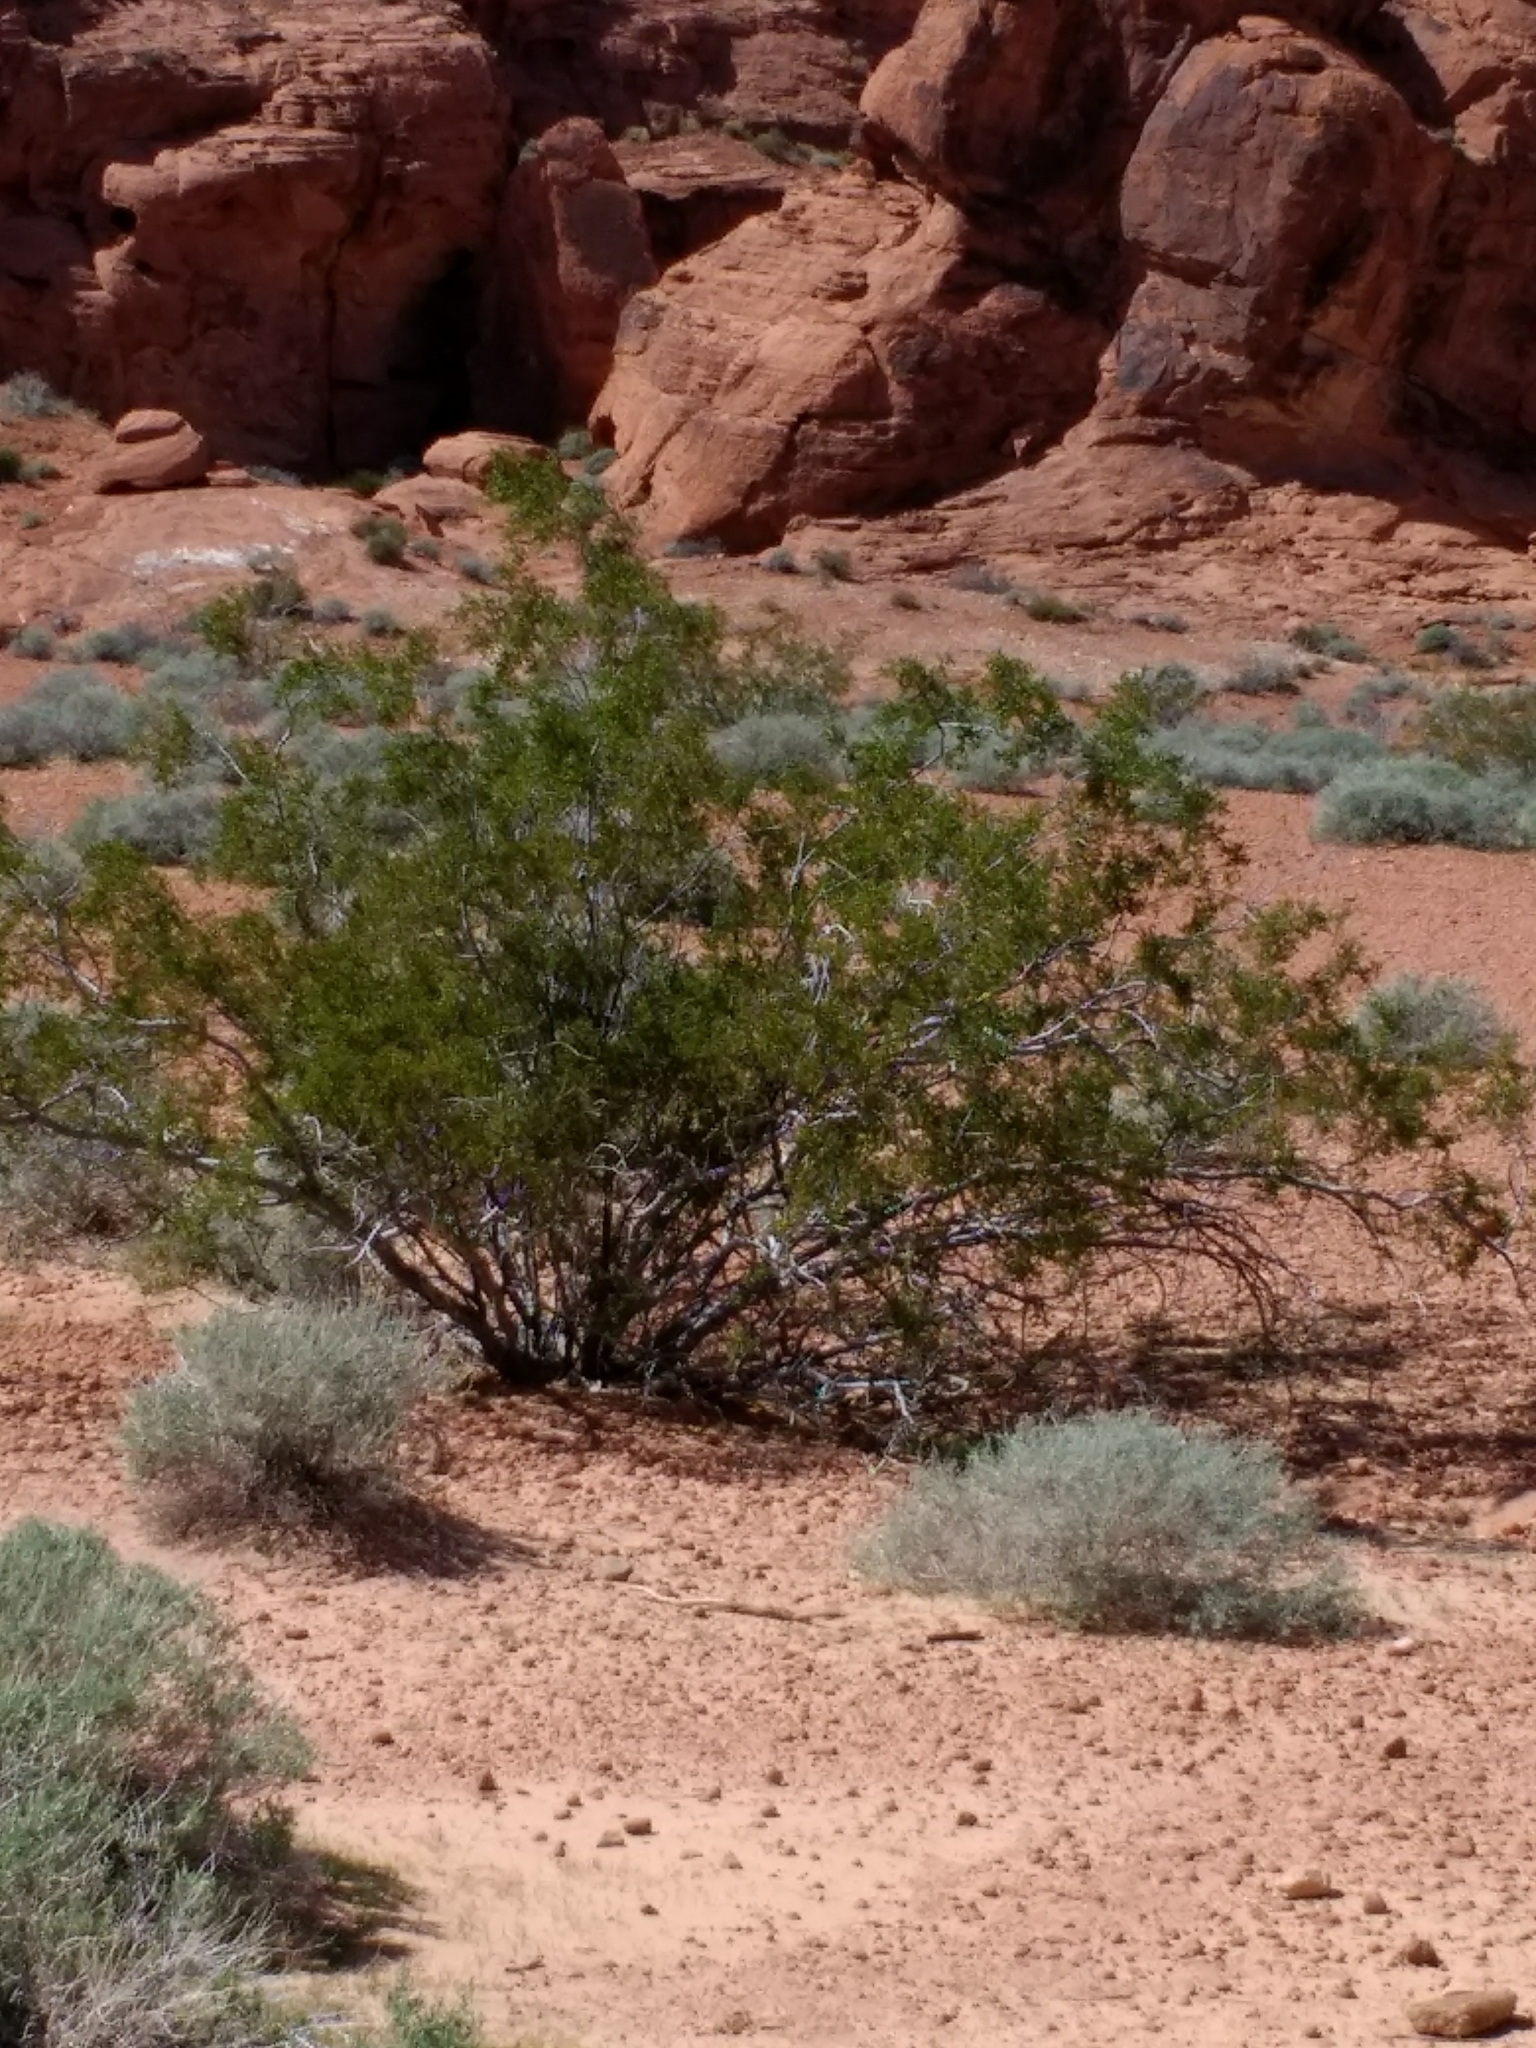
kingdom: Plantae
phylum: Tracheophyta
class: Magnoliopsida
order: Zygophyllales
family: Zygophyllaceae
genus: Larrea
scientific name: Larrea tridentata
